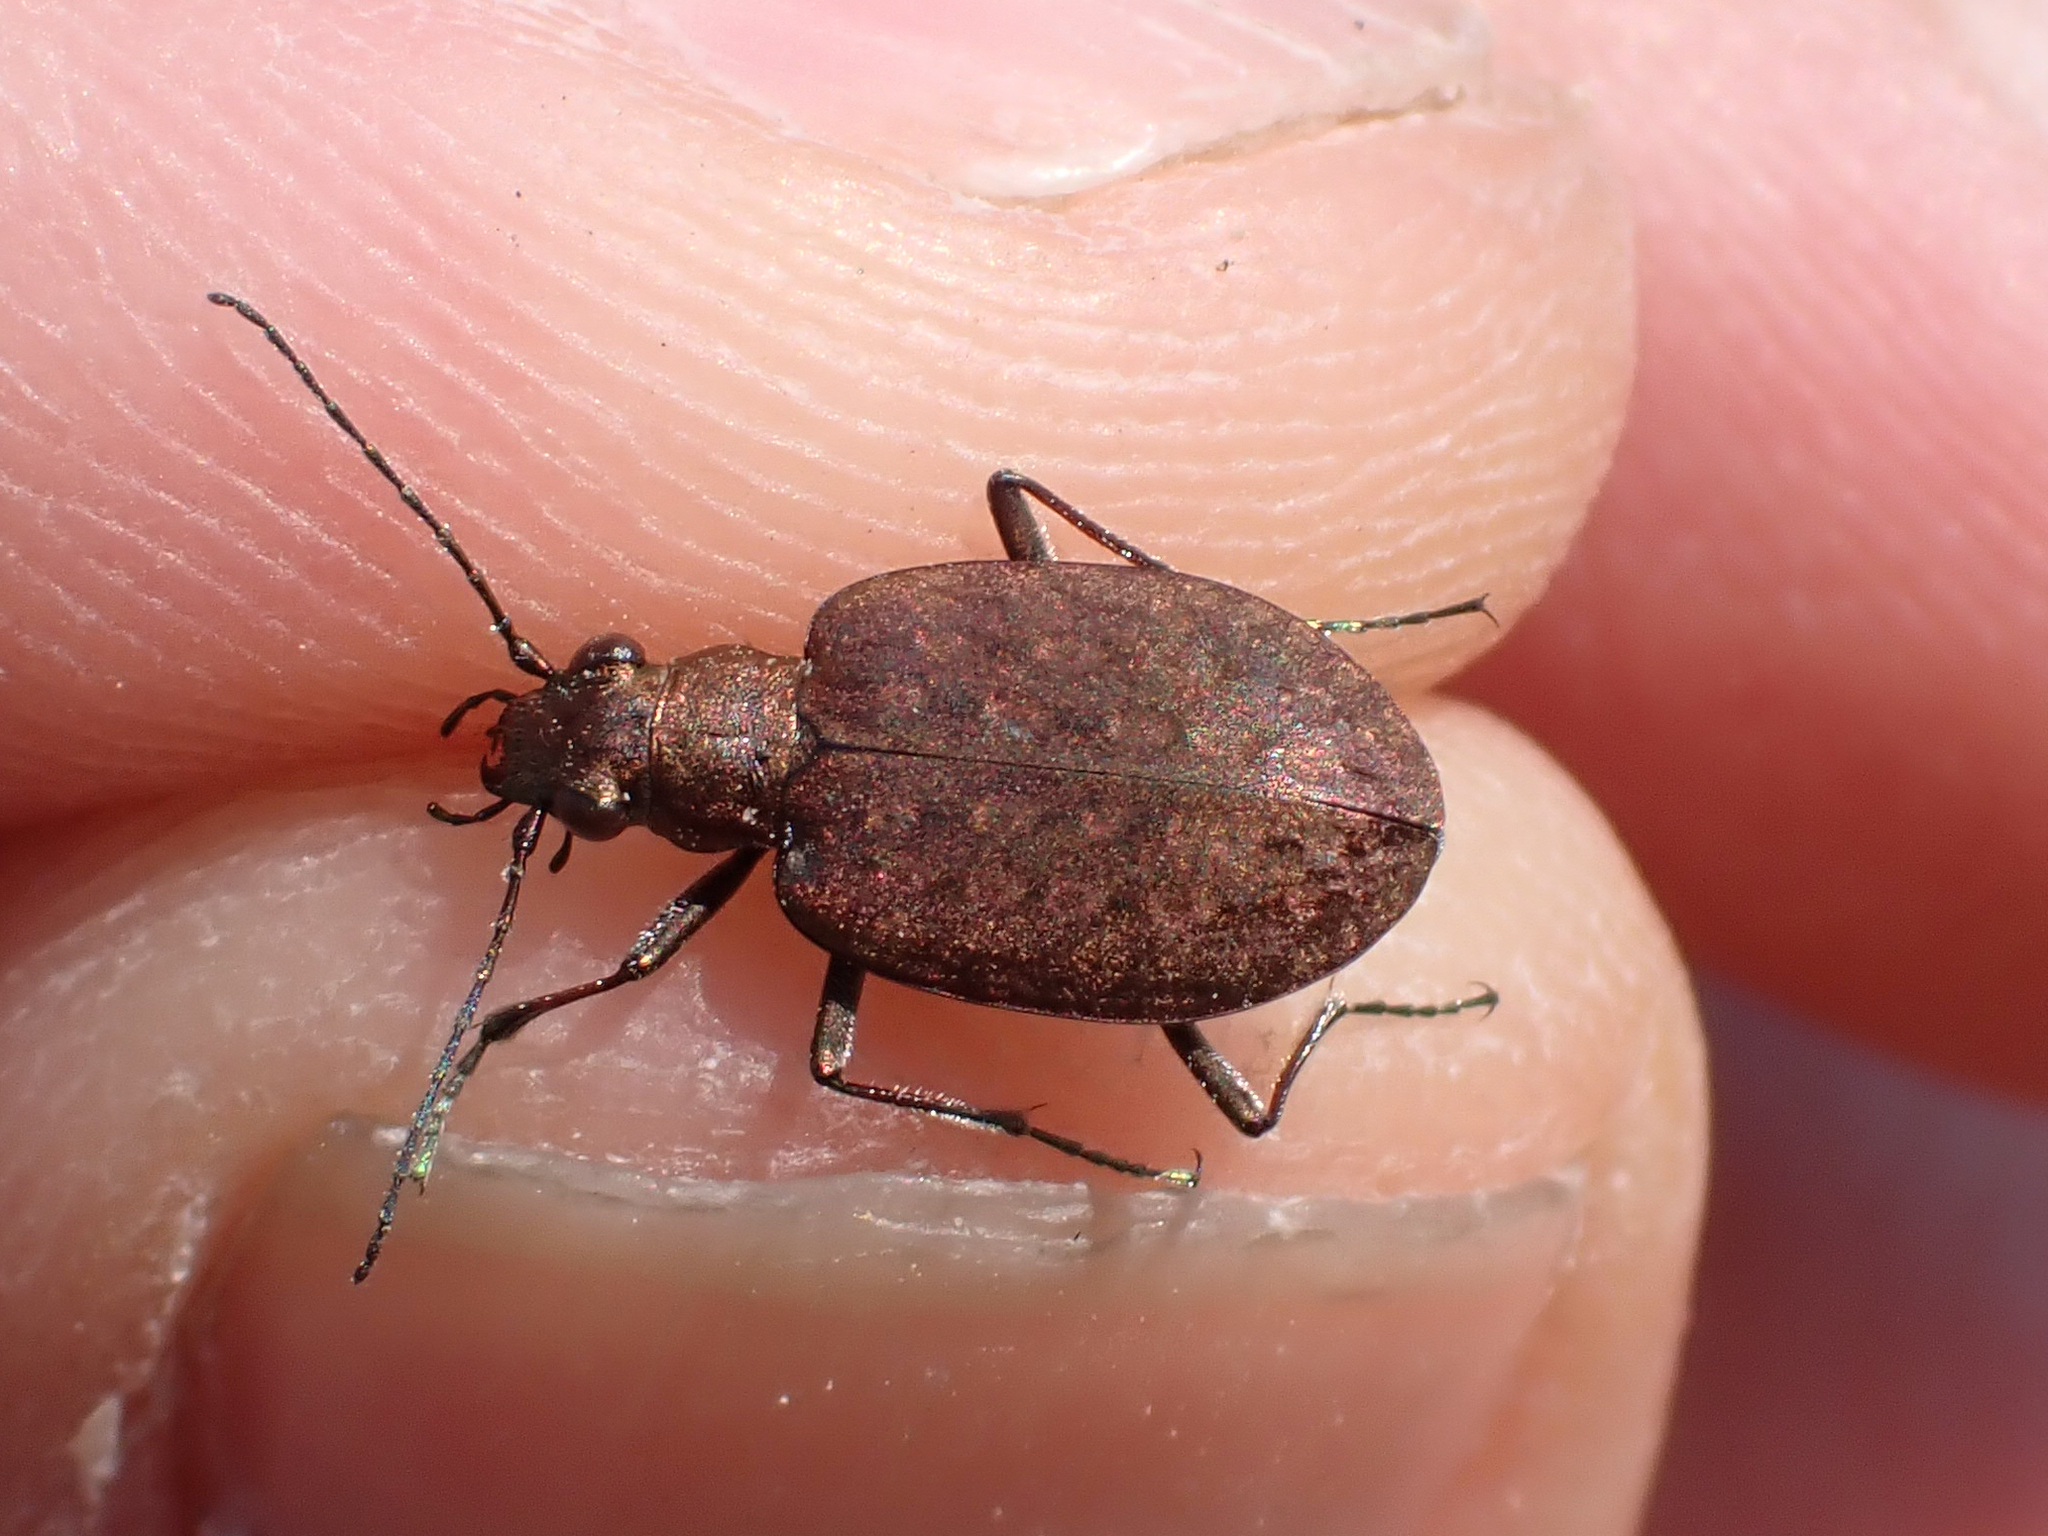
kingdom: Animalia
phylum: Arthropoda
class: Insecta
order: Coleoptera
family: Carabidae
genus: Opisthius
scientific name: Opisthius richardsoni
